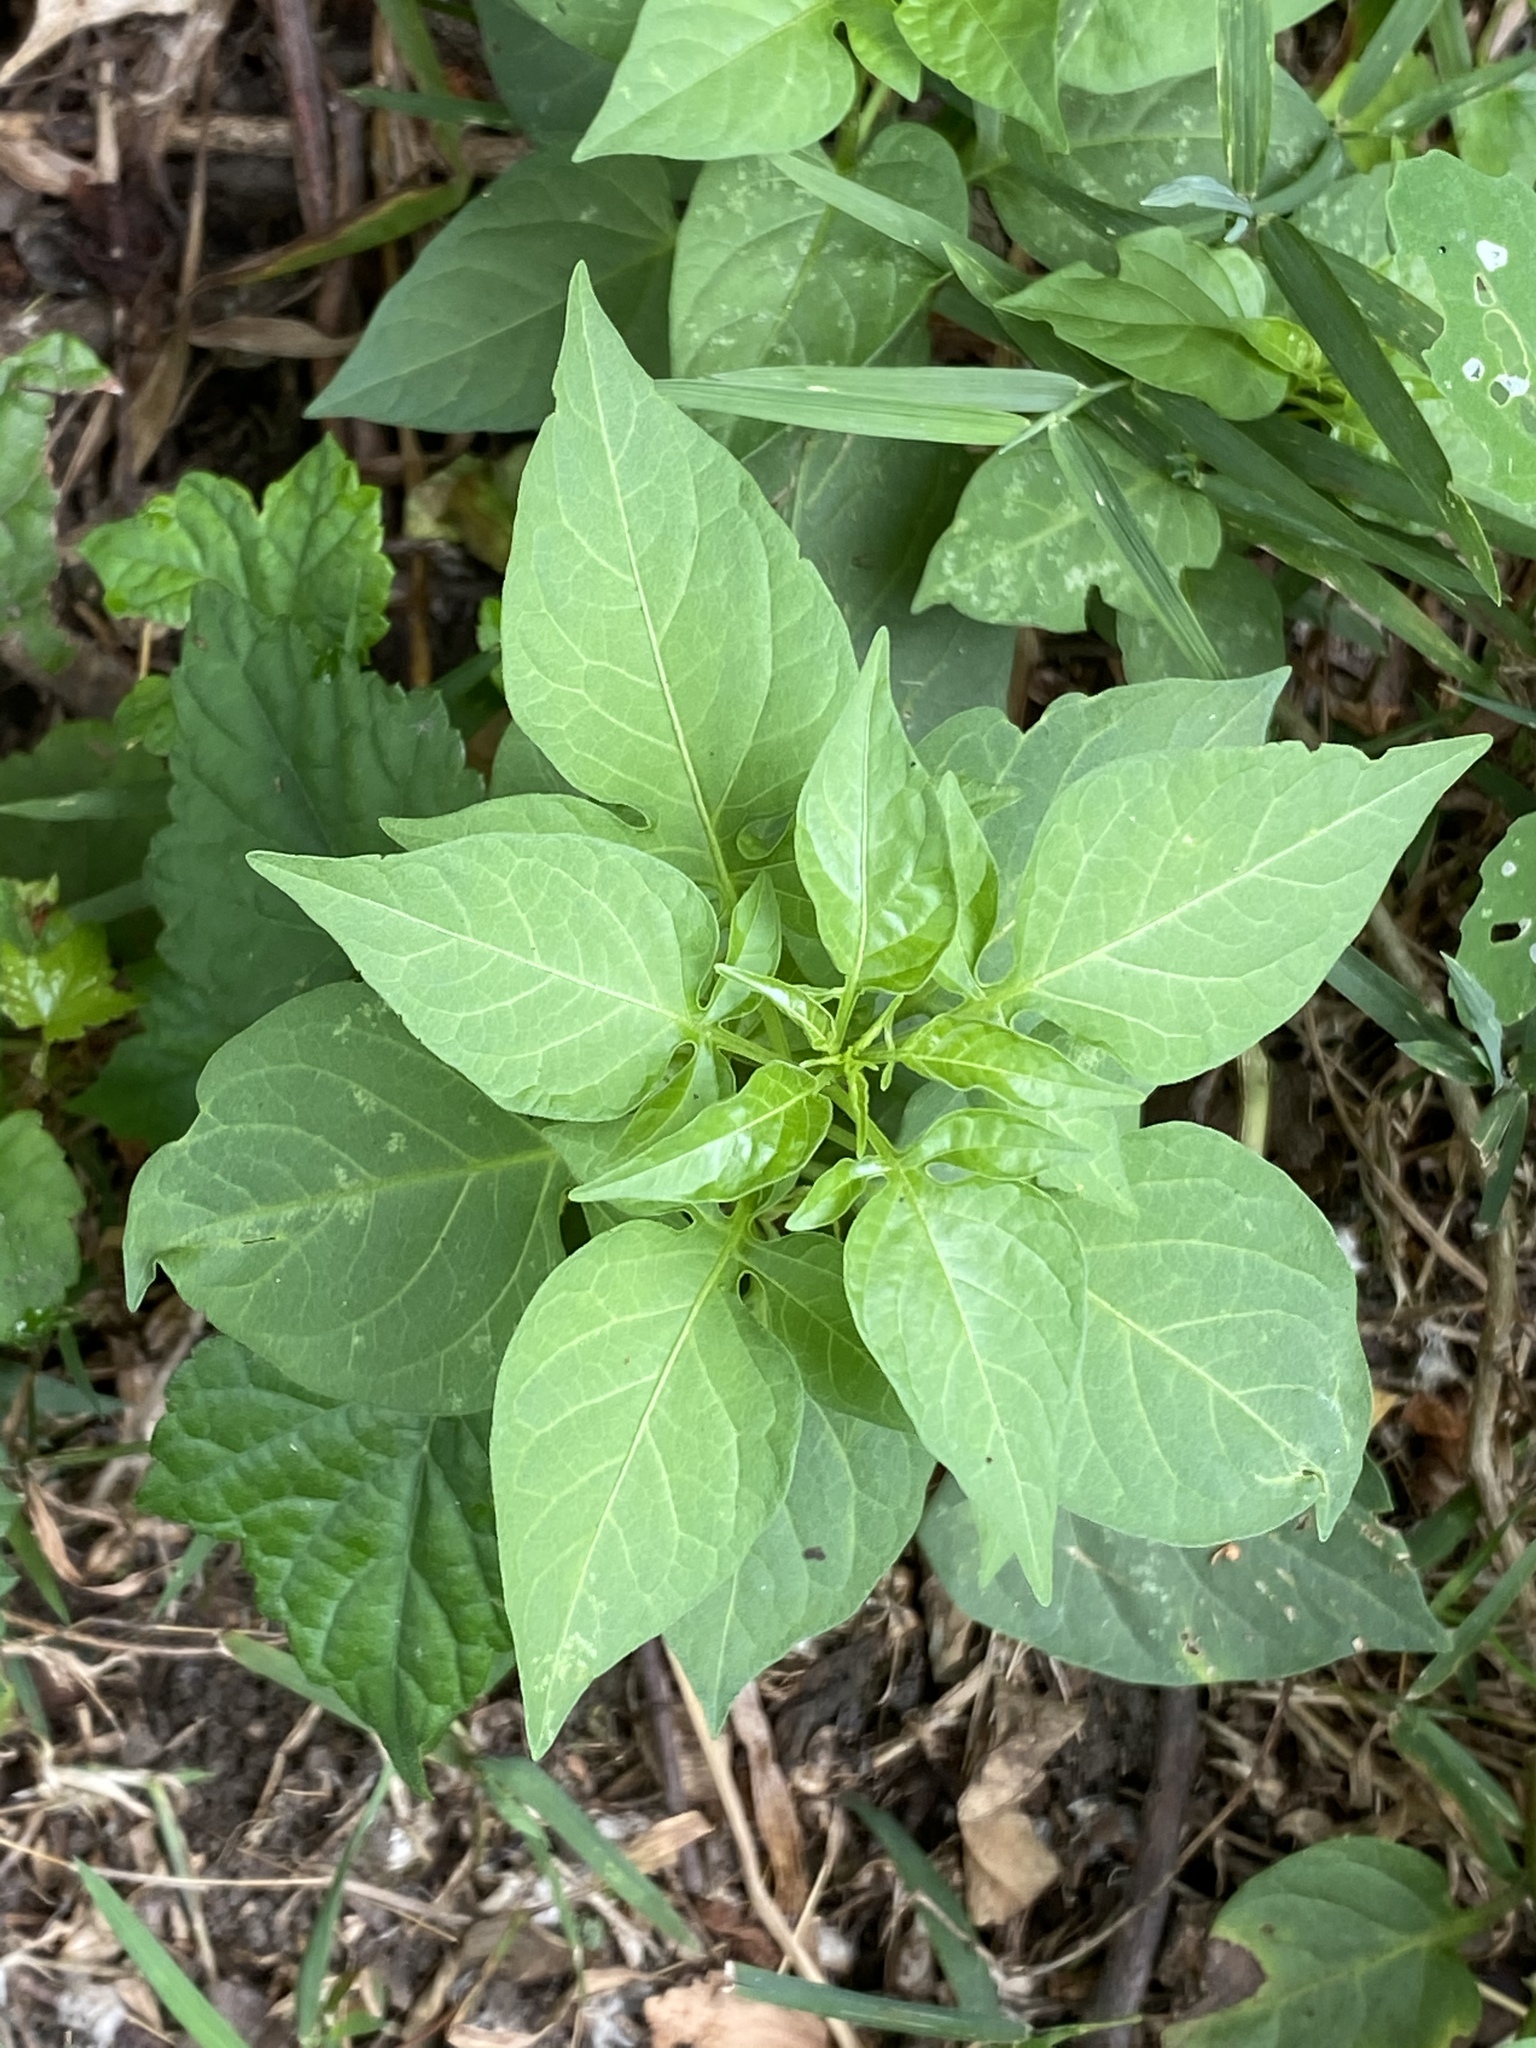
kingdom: Plantae
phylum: Tracheophyta
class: Magnoliopsida
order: Solanales
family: Solanaceae
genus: Solanum
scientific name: Solanum dulcamara
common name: Climbing nightshade
